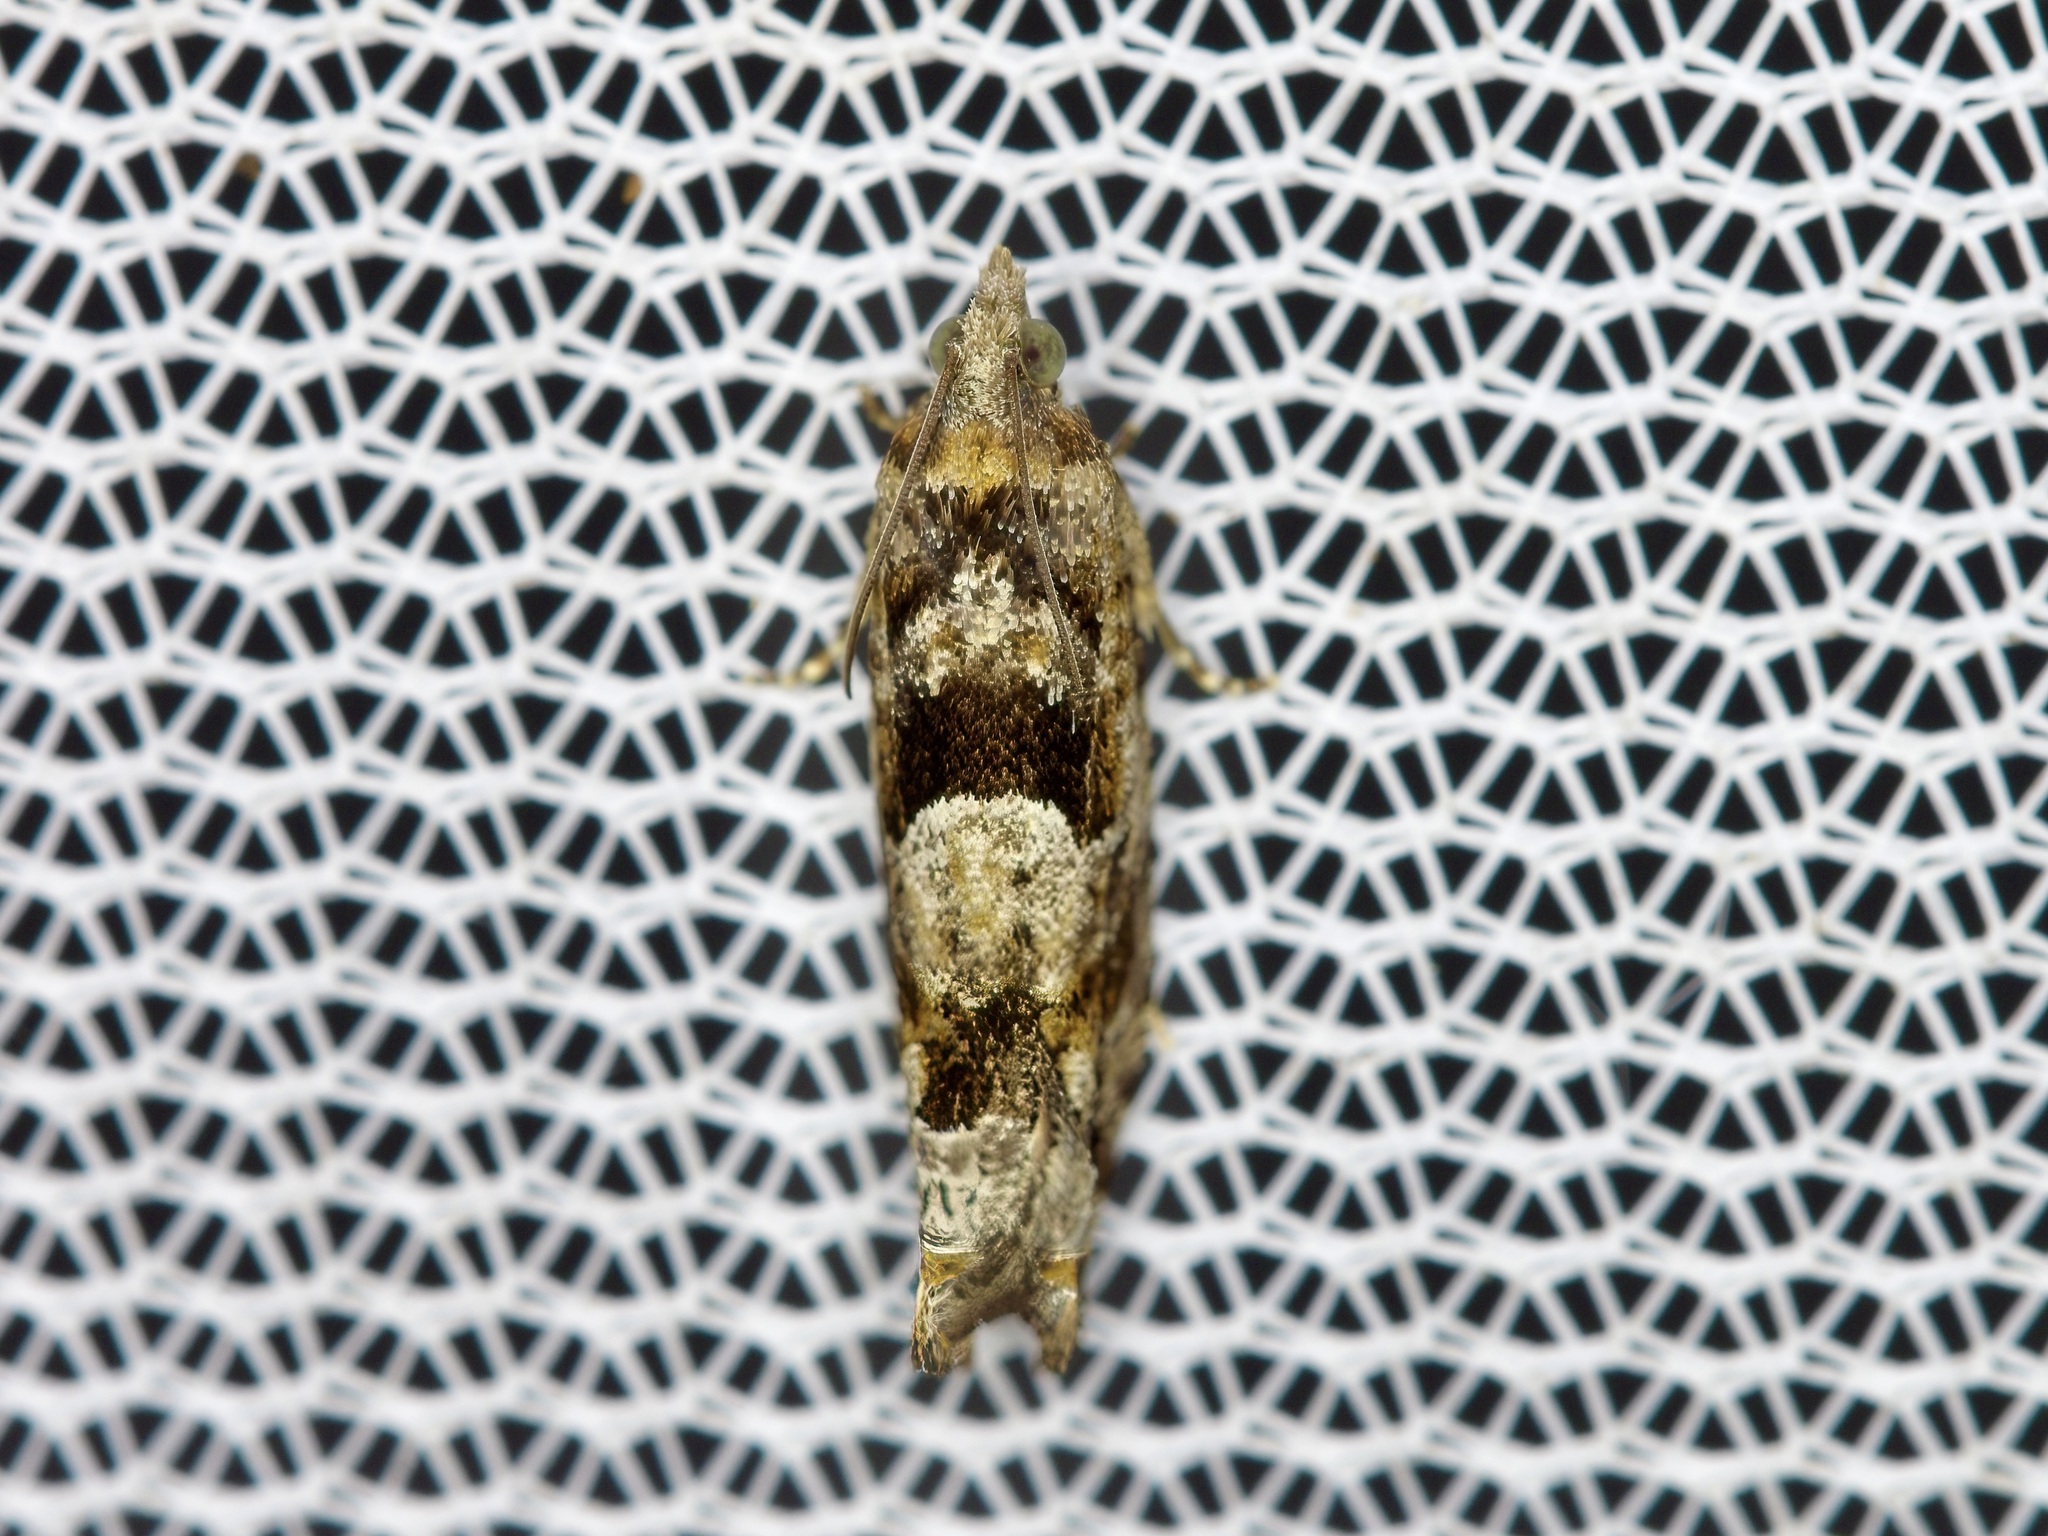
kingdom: Animalia
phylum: Arthropoda
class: Insecta
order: Lepidoptera
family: Tortricidae
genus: Pseudexentera
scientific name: Pseudexentera hodsoni
